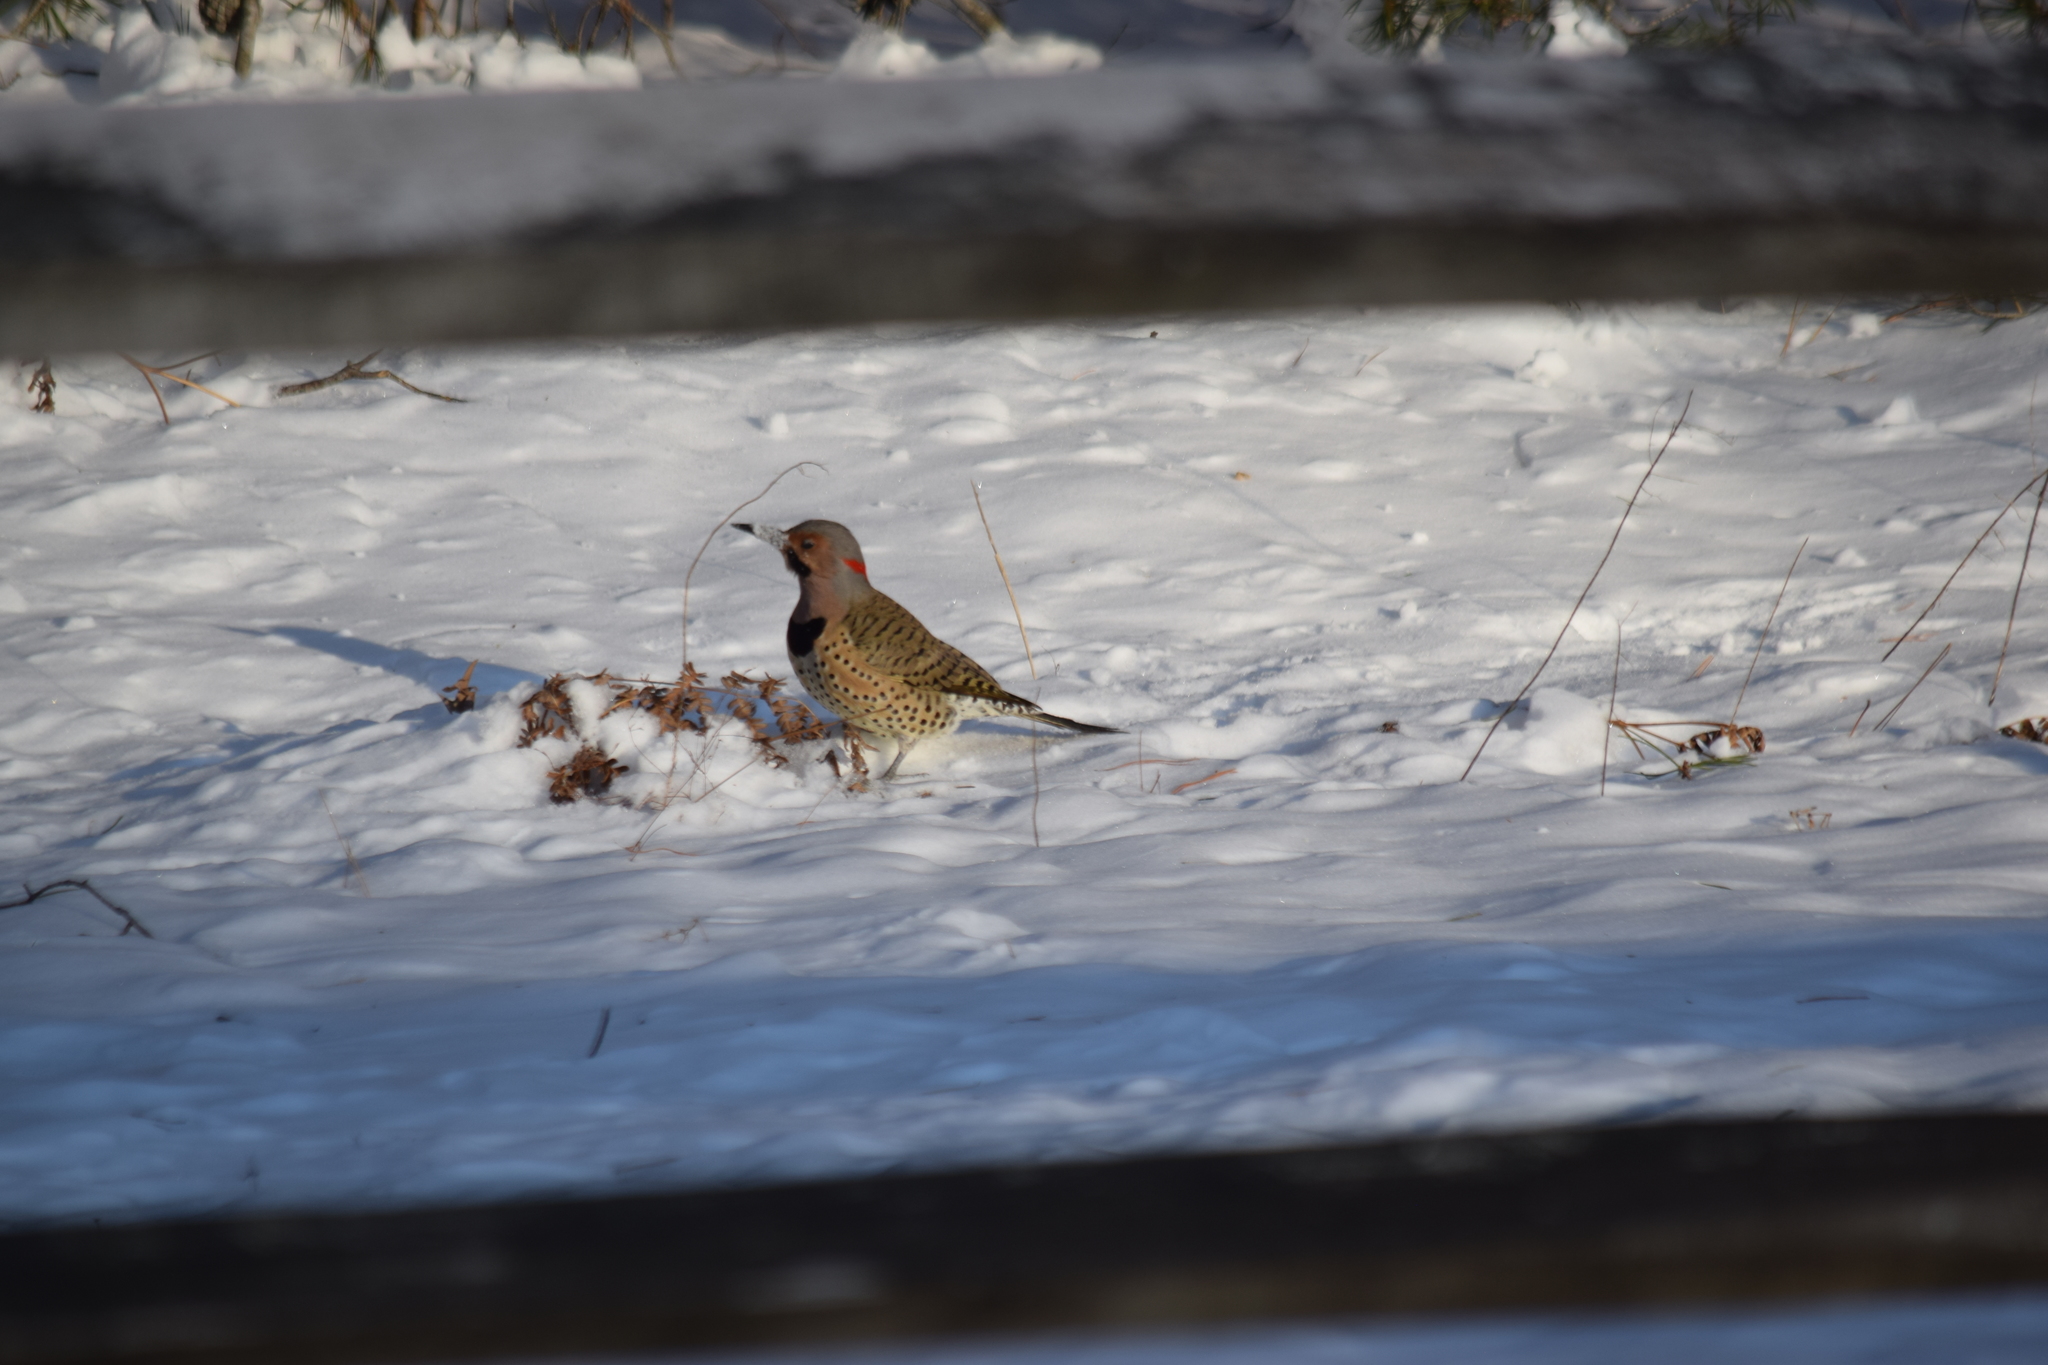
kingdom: Animalia
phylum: Chordata
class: Aves
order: Piciformes
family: Picidae
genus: Colaptes
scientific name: Colaptes auratus
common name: Northern flicker
